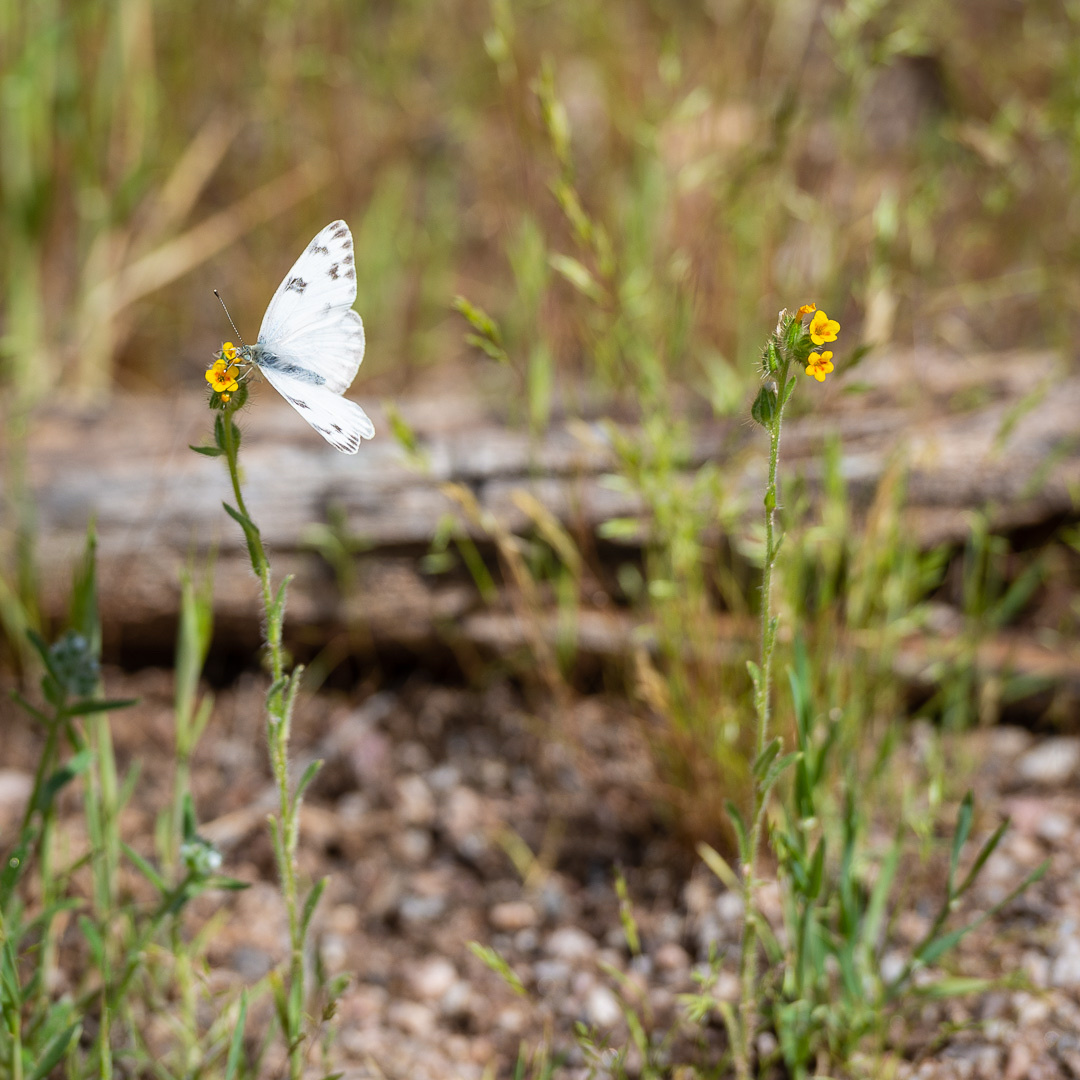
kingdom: Animalia
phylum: Arthropoda
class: Insecta
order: Lepidoptera
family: Pieridae
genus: Pontia
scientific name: Pontia protodice
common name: Checkered white
